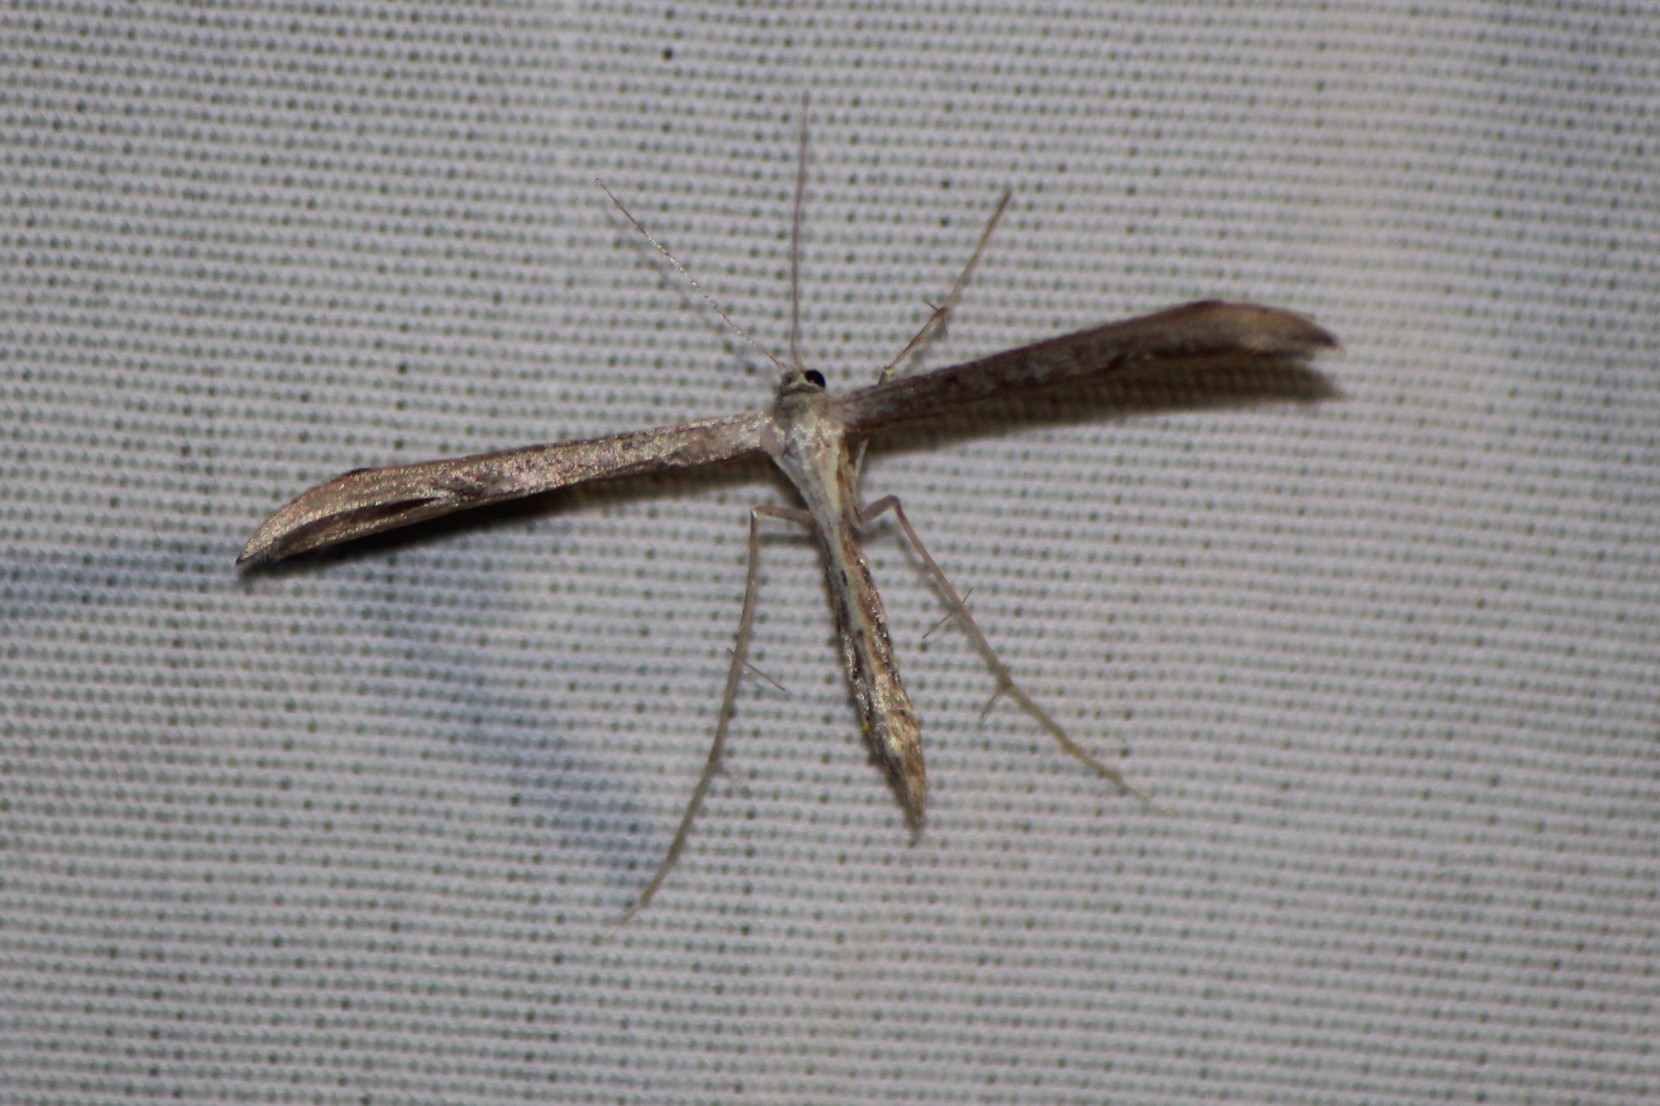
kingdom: Animalia
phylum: Arthropoda
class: Insecta
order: Lepidoptera
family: Pterophoridae
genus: Emmelina
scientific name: Emmelina monodactyla
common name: Common plume
